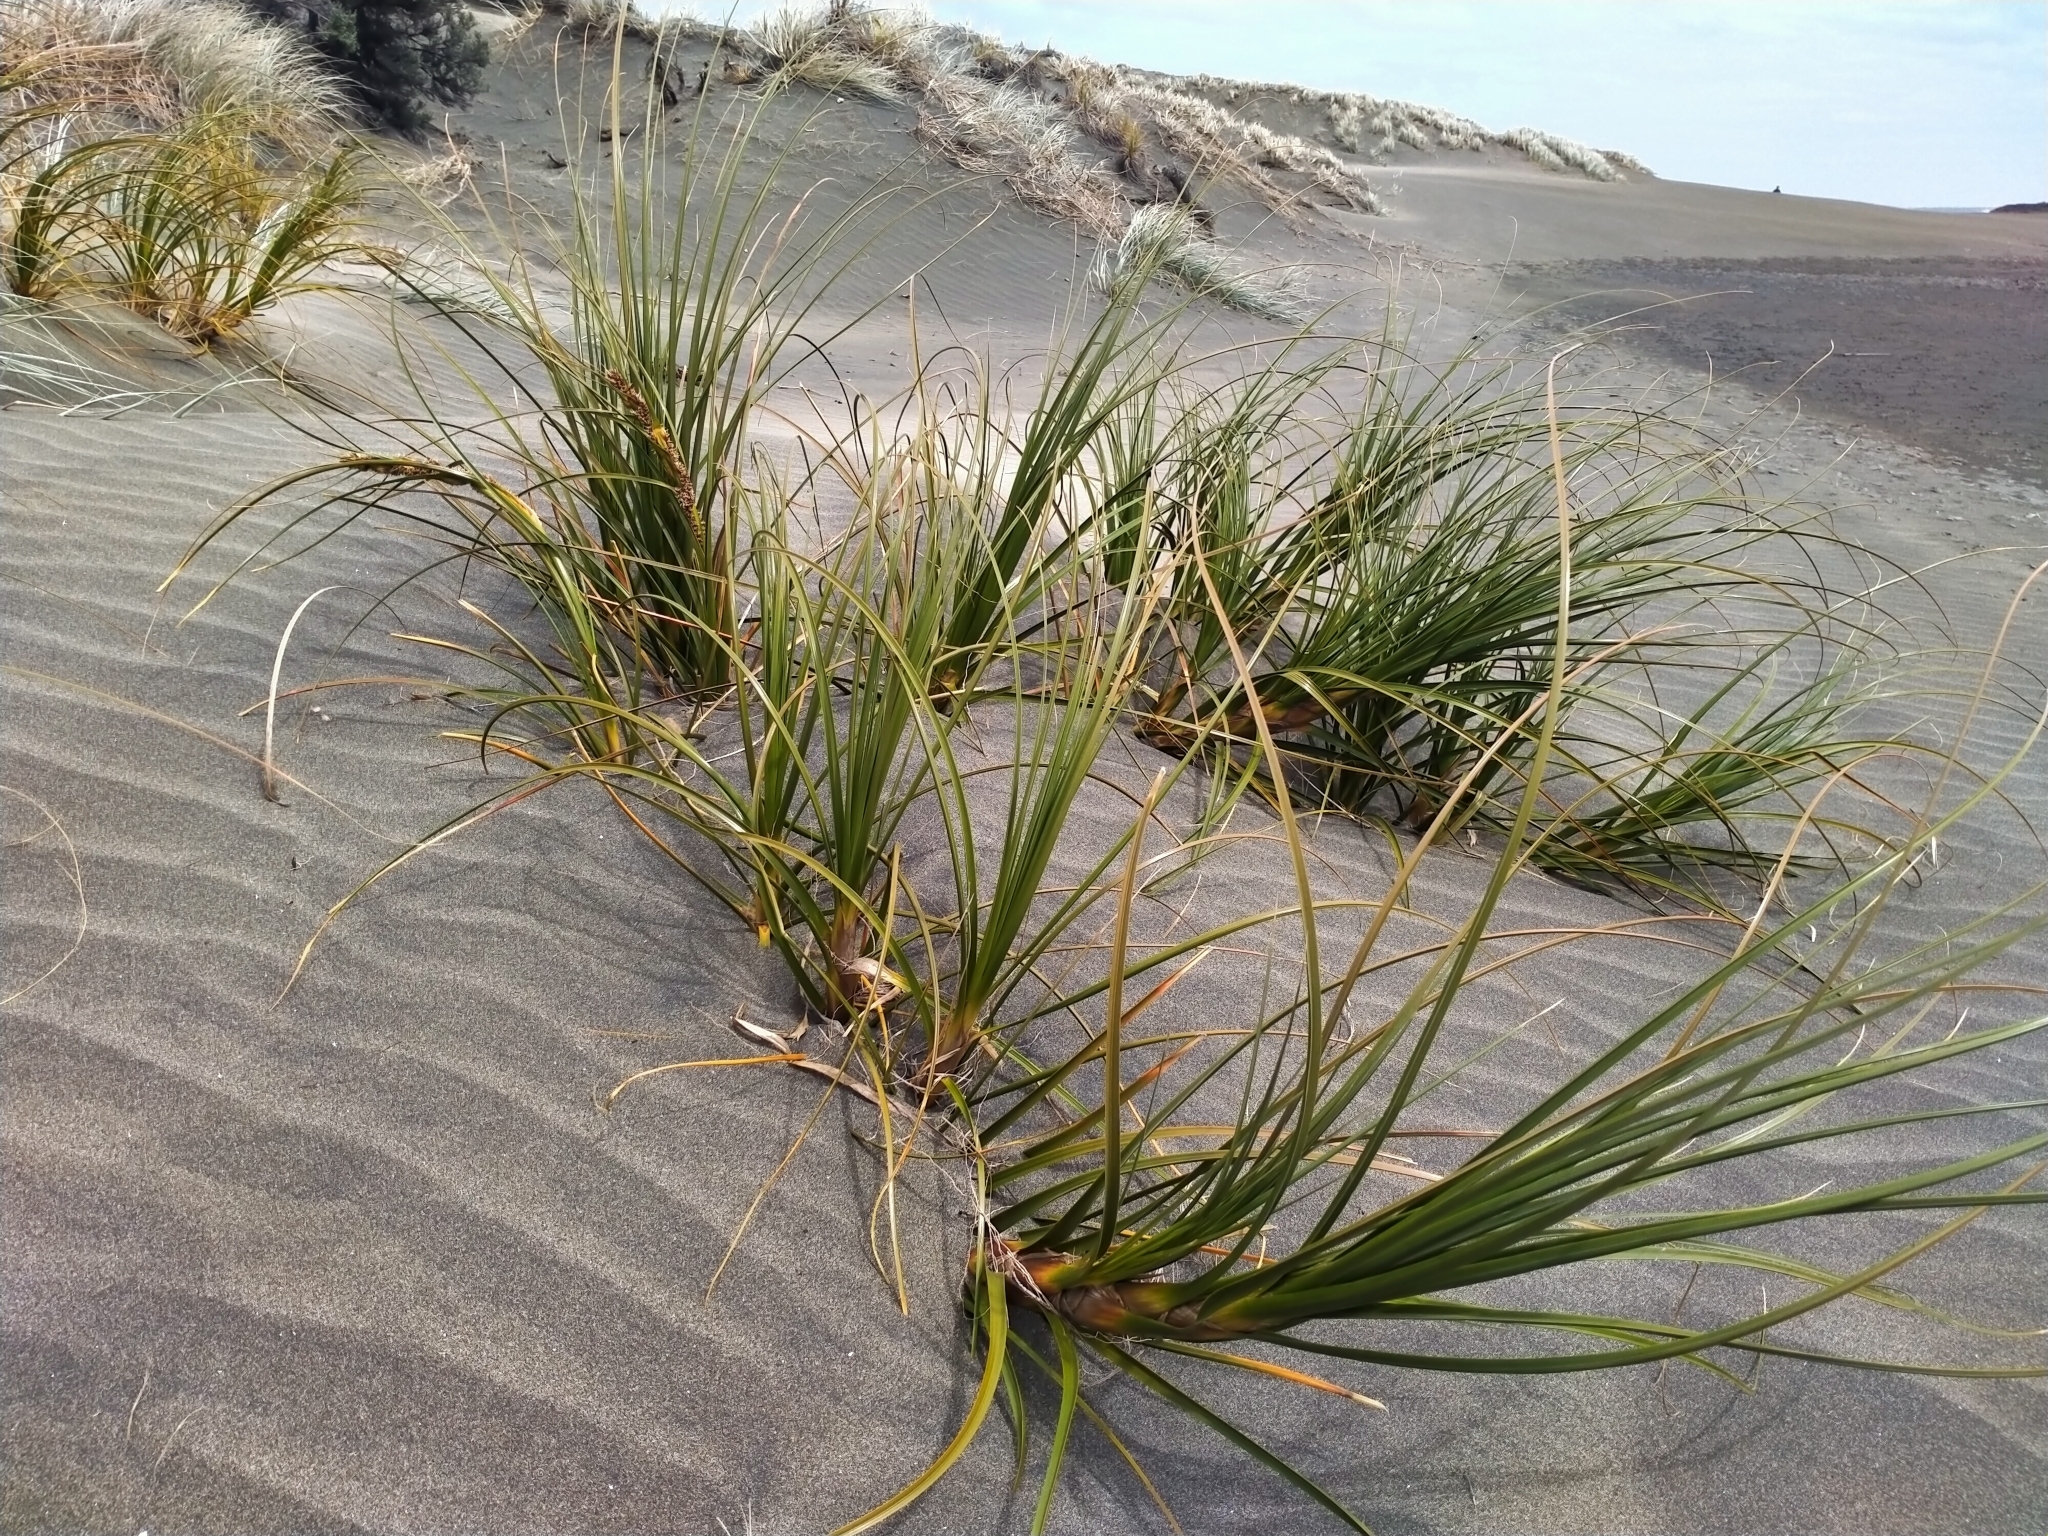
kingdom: Plantae
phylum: Tracheophyta
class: Liliopsida
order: Poales
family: Cyperaceae
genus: Ficinia
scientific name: Ficinia spiralis
